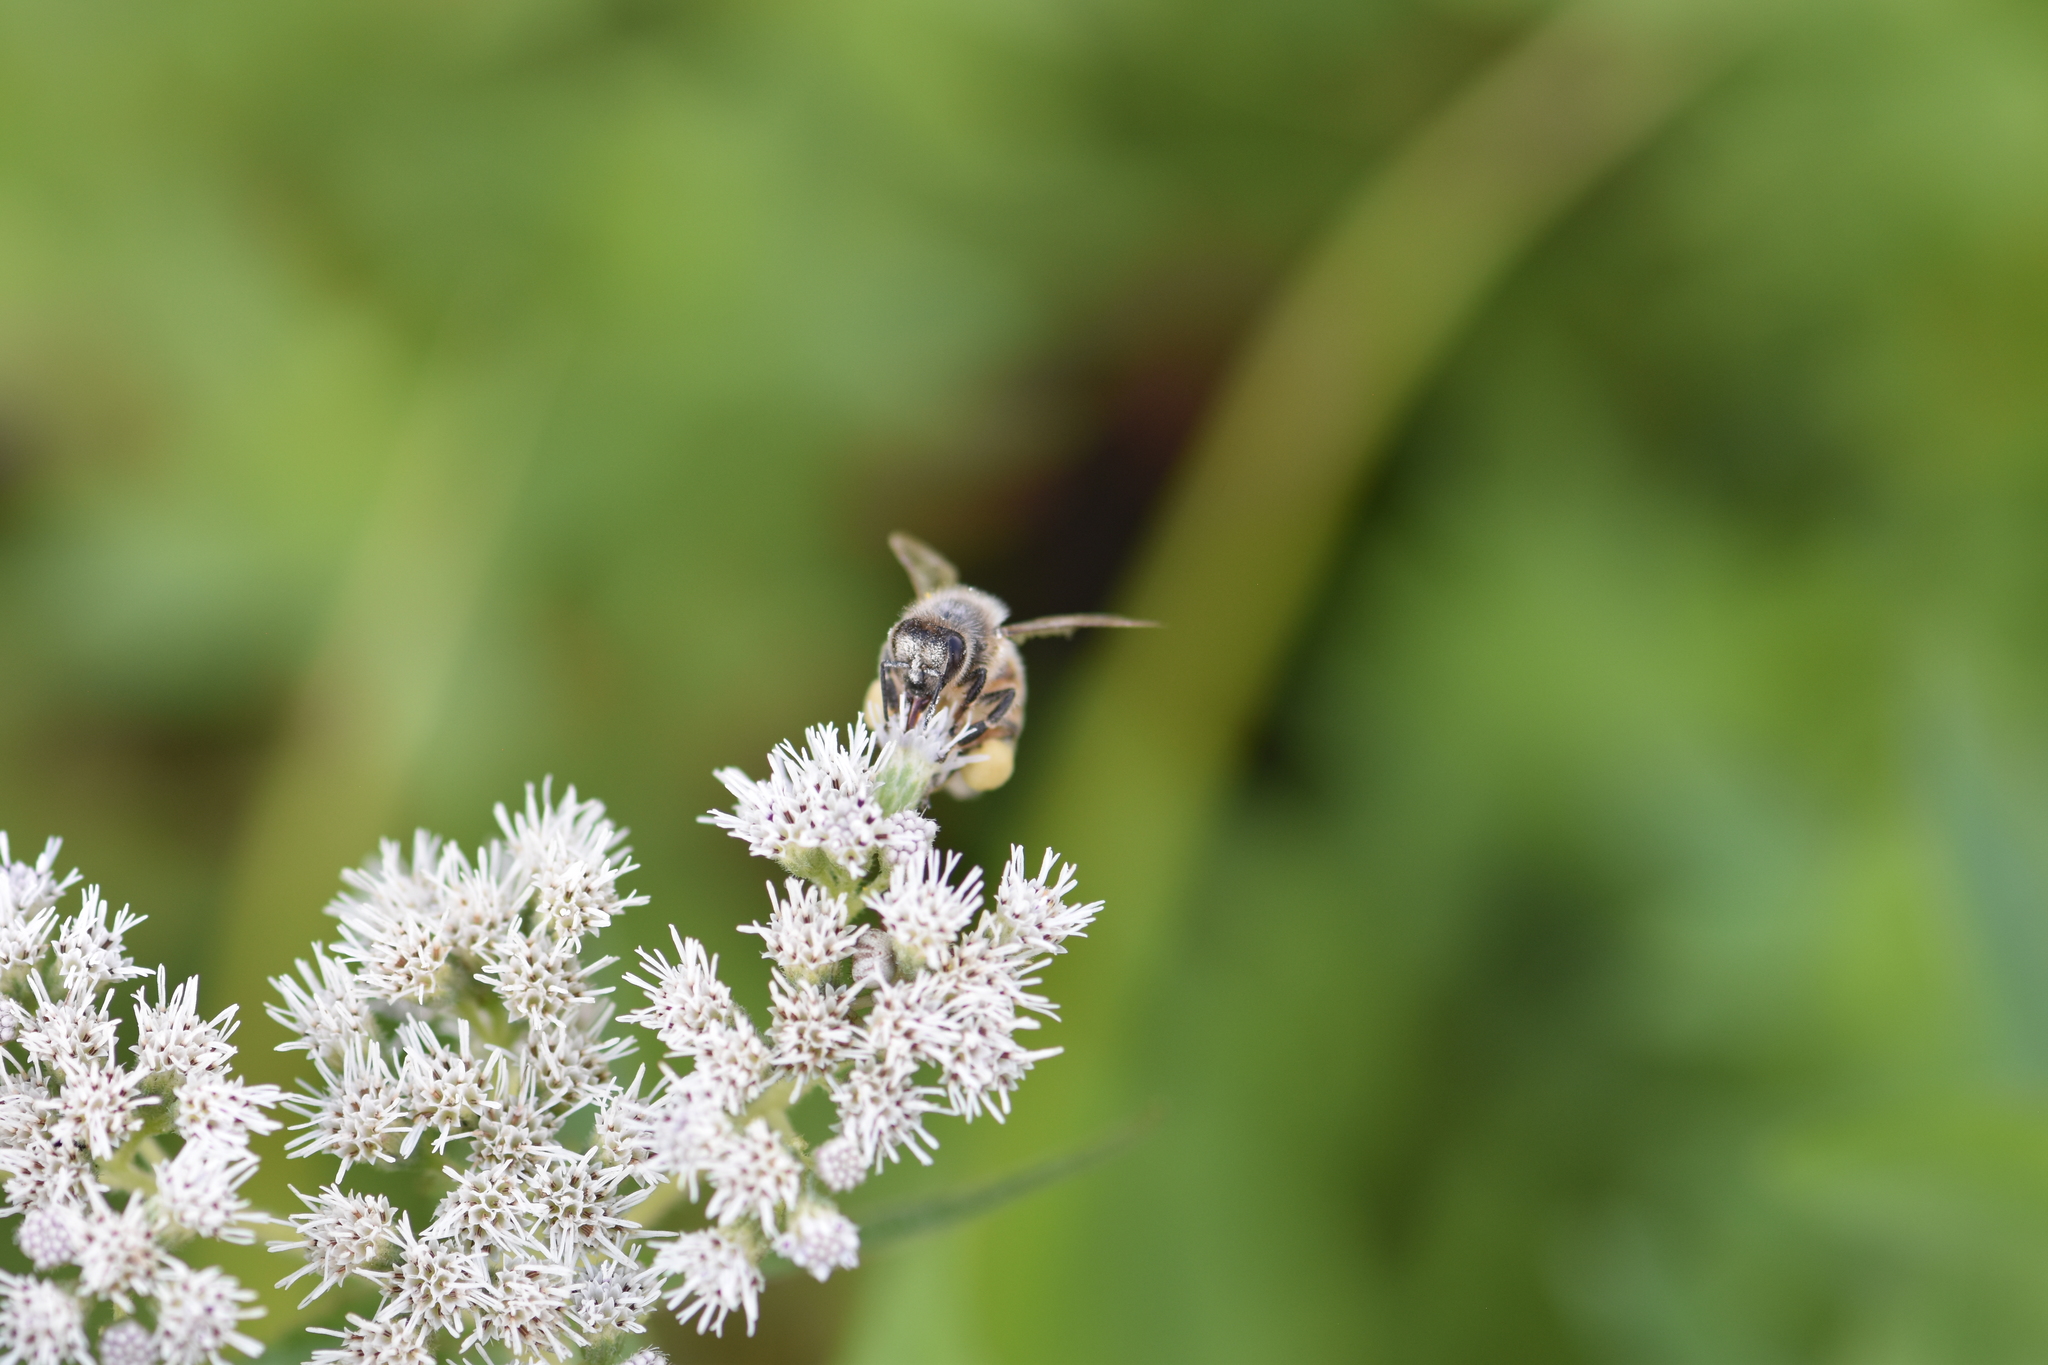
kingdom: Animalia
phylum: Arthropoda
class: Insecta
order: Hymenoptera
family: Apidae
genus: Apis
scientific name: Apis mellifera
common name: Honey bee
